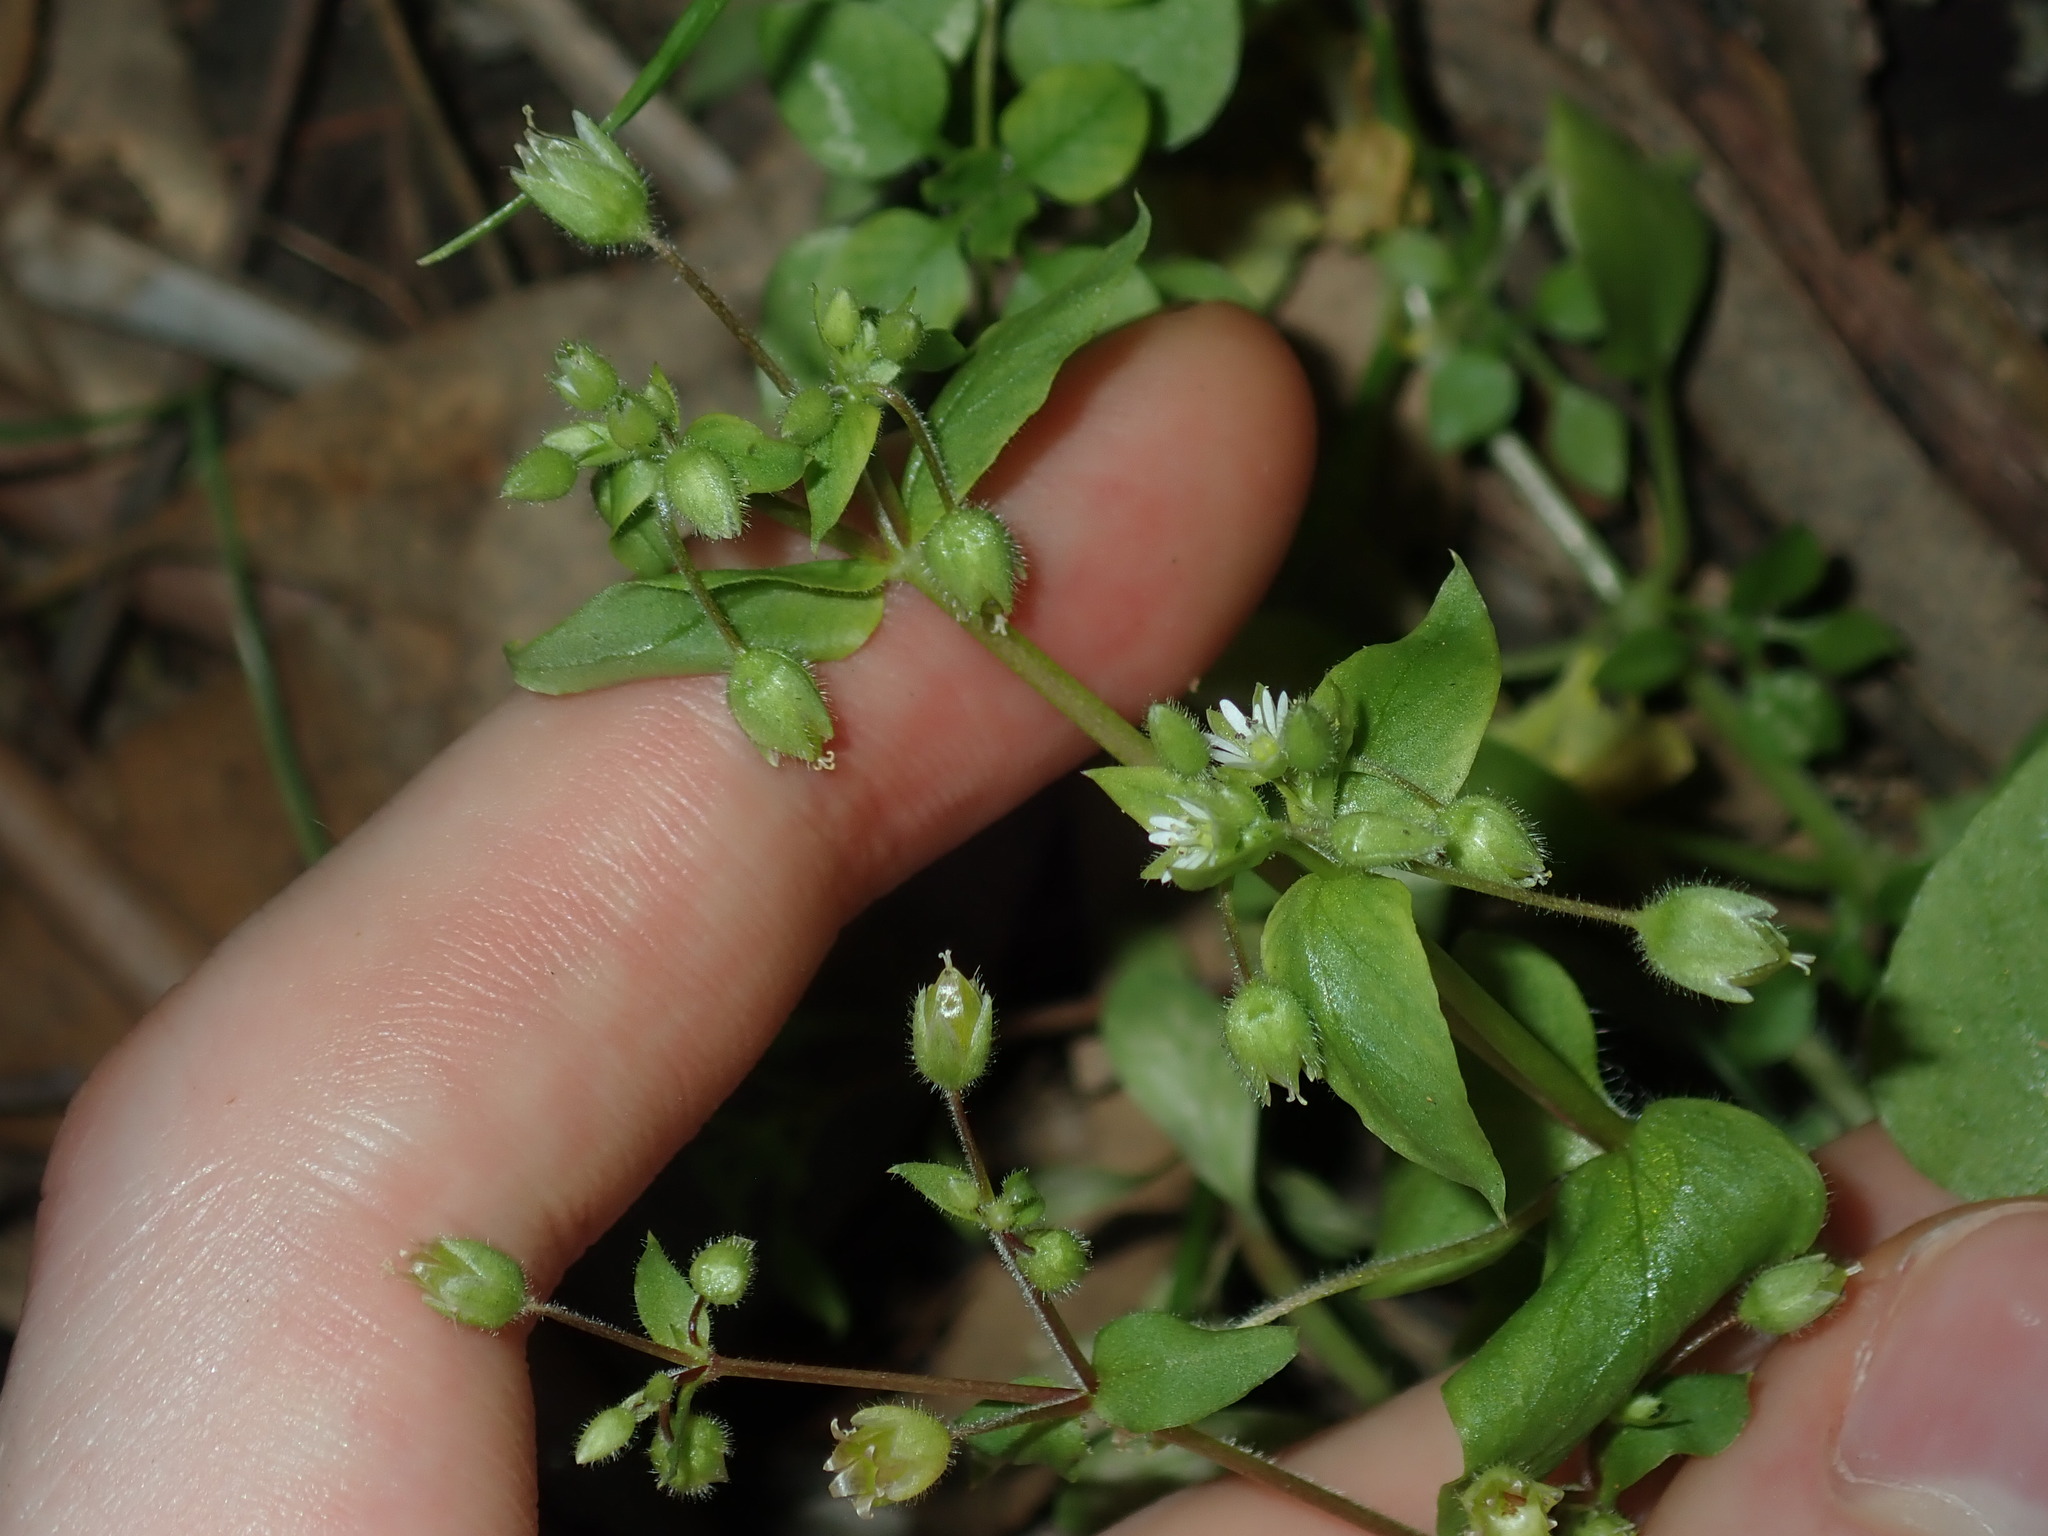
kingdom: Plantae
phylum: Tracheophyta
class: Magnoliopsida
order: Caryophyllales
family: Caryophyllaceae
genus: Stellaria
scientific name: Stellaria media
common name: Common chickweed
